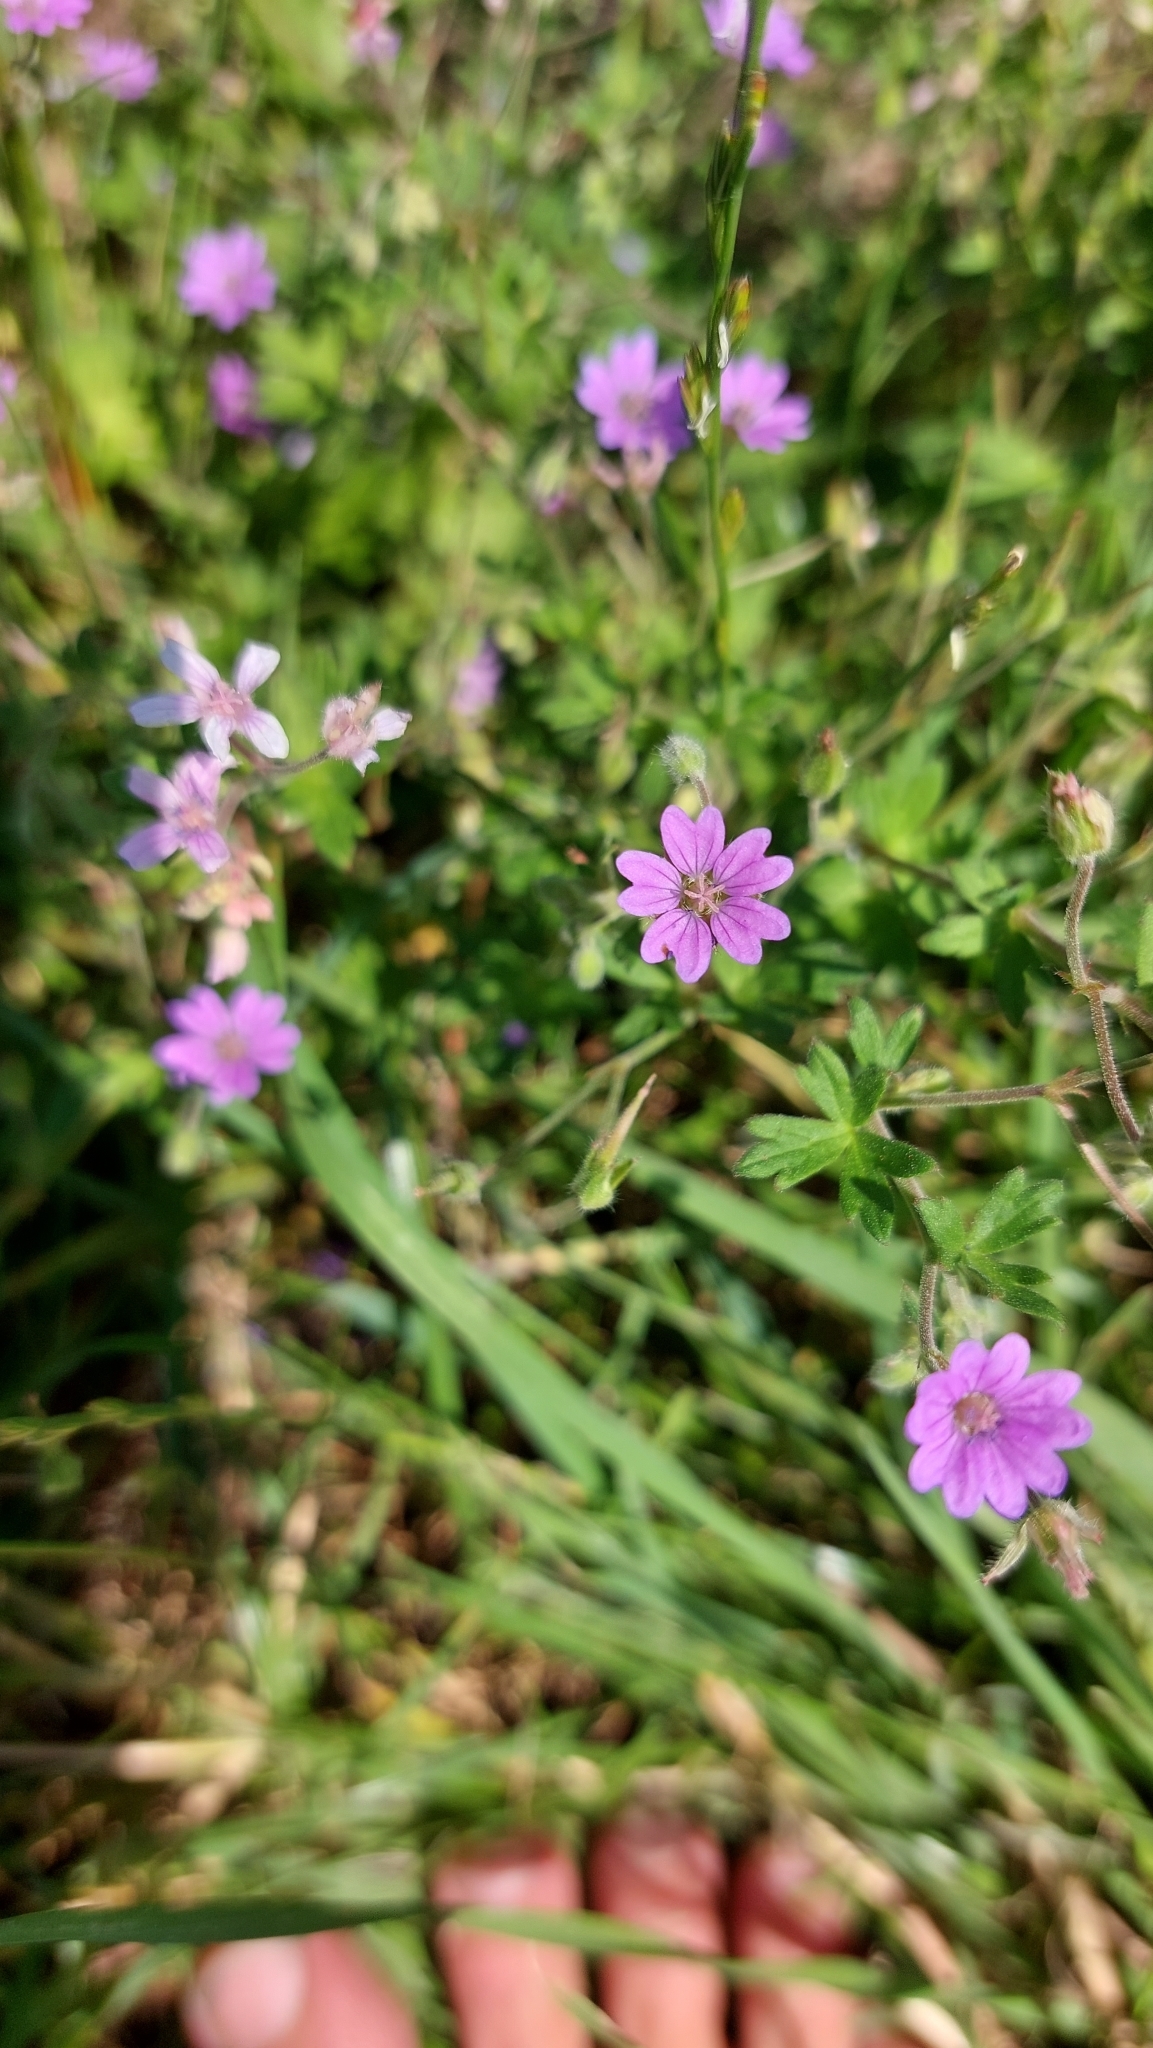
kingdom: Plantae
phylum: Tracheophyta
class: Magnoliopsida
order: Geraniales
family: Geraniaceae
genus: Geranium
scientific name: Geranium pyrenaicum
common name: Hedgerow crane's-bill
